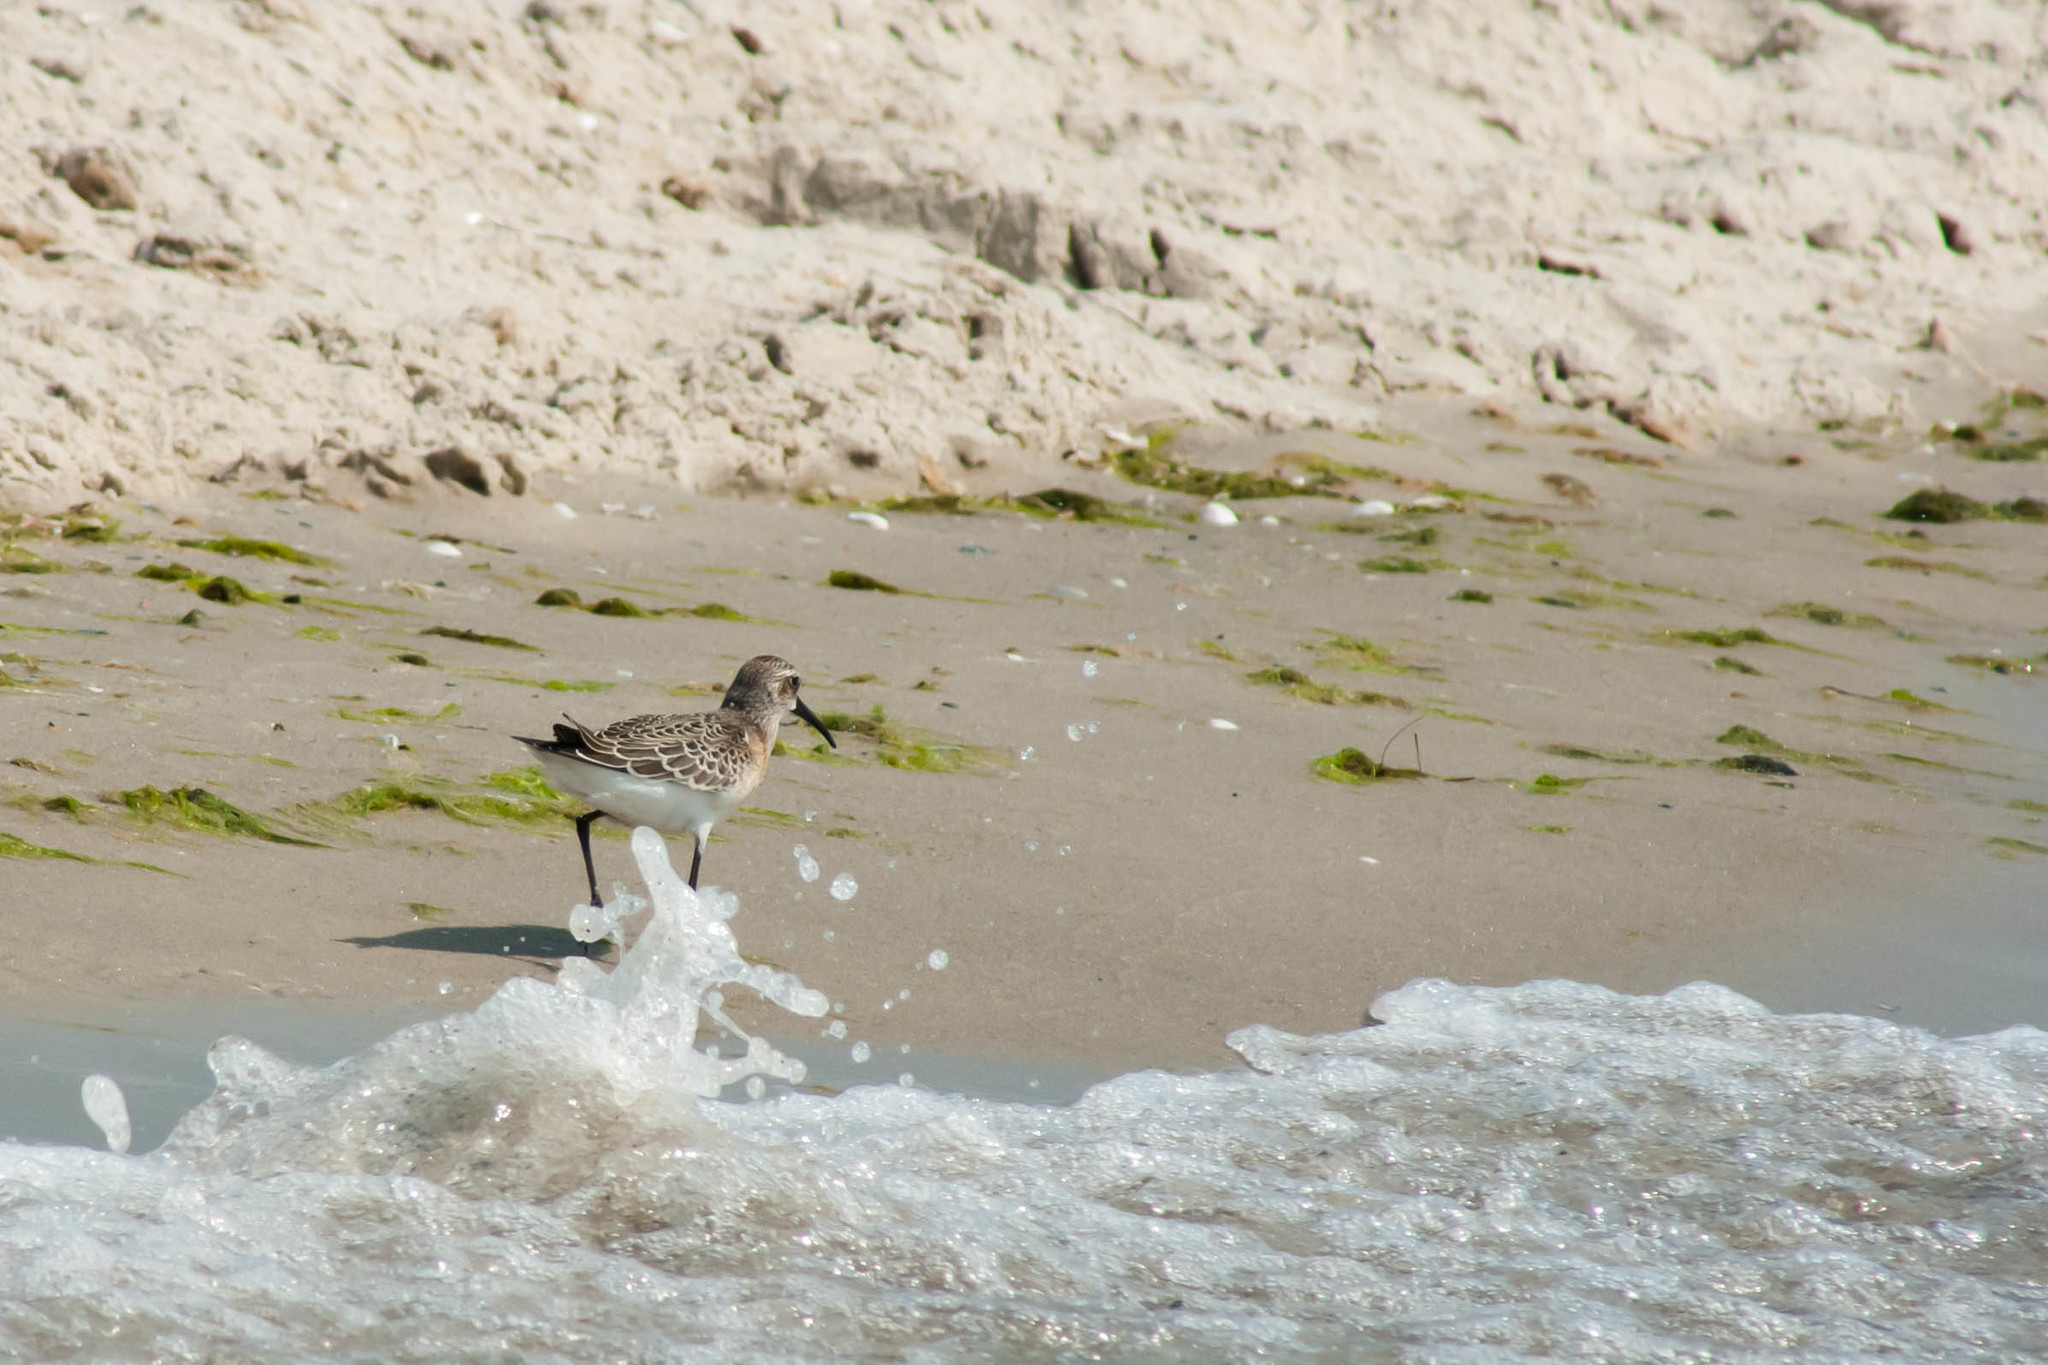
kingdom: Animalia
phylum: Chordata
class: Aves
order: Charadriiformes
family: Scolopacidae
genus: Calidris
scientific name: Calidris ferruginea
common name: Curlew sandpiper
